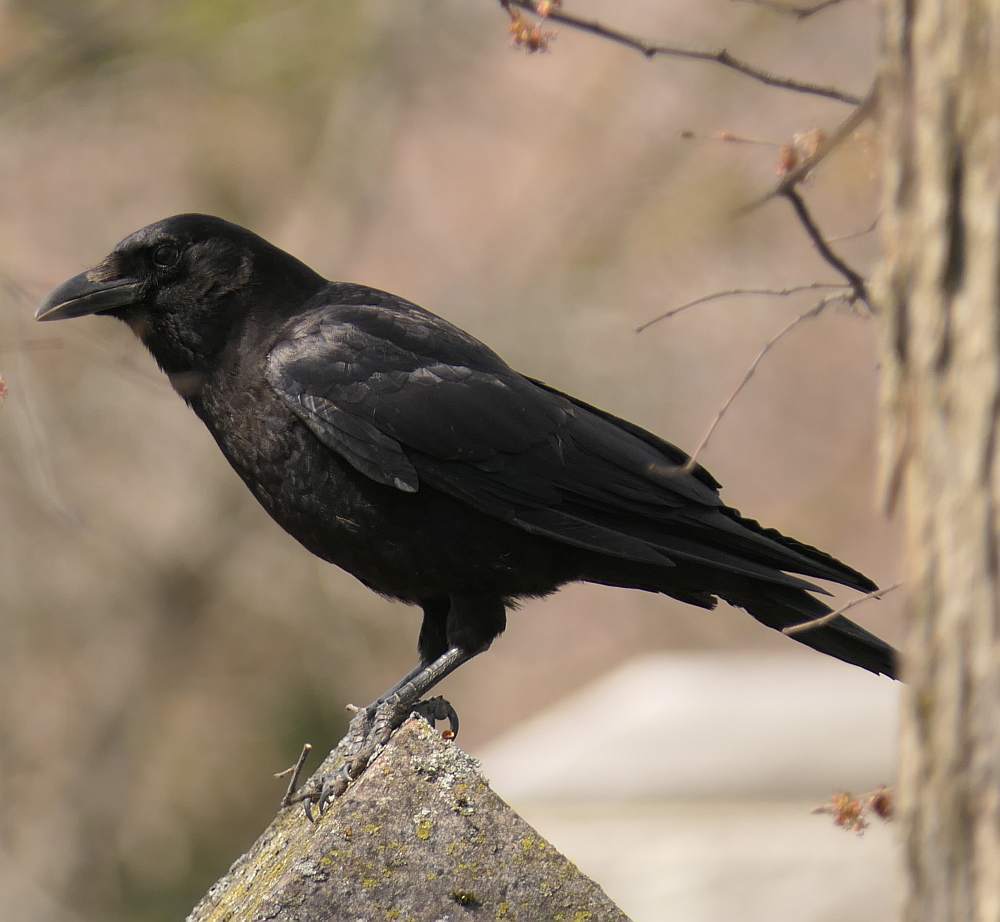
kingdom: Animalia
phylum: Chordata
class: Aves
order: Passeriformes
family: Corvidae
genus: Corvus
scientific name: Corvus brachyrhynchos
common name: American crow
